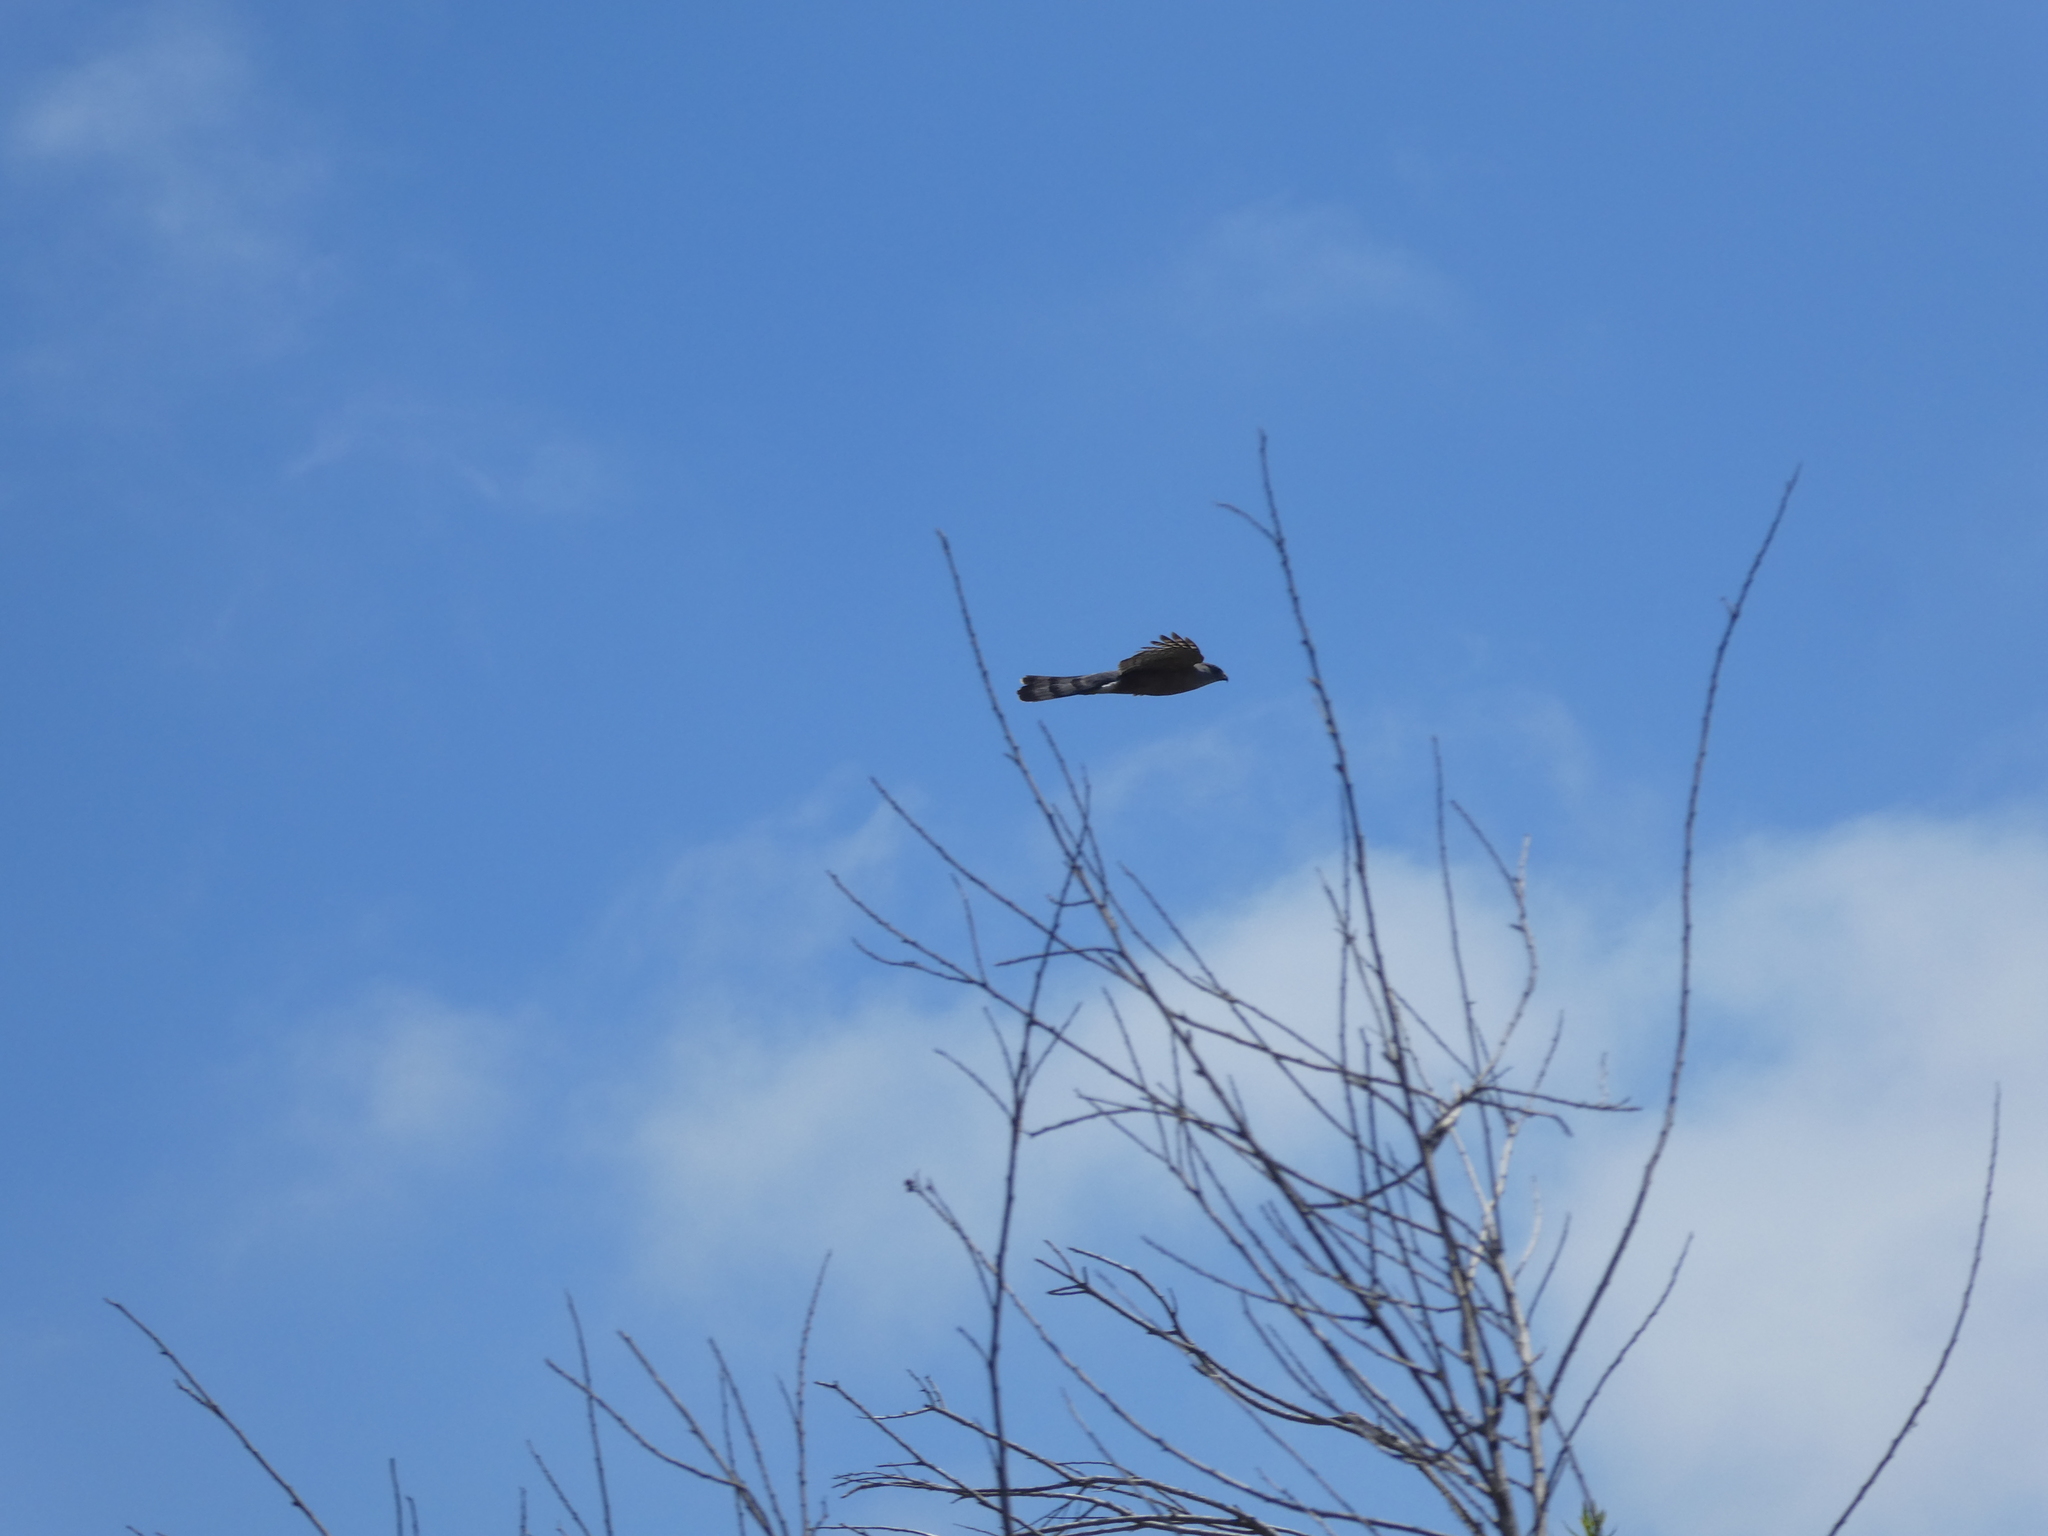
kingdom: Animalia
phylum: Chordata
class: Aves
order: Accipitriformes
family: Accipitridae
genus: Accipiter
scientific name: Accipiter cooperii
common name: Cooper's hawk
